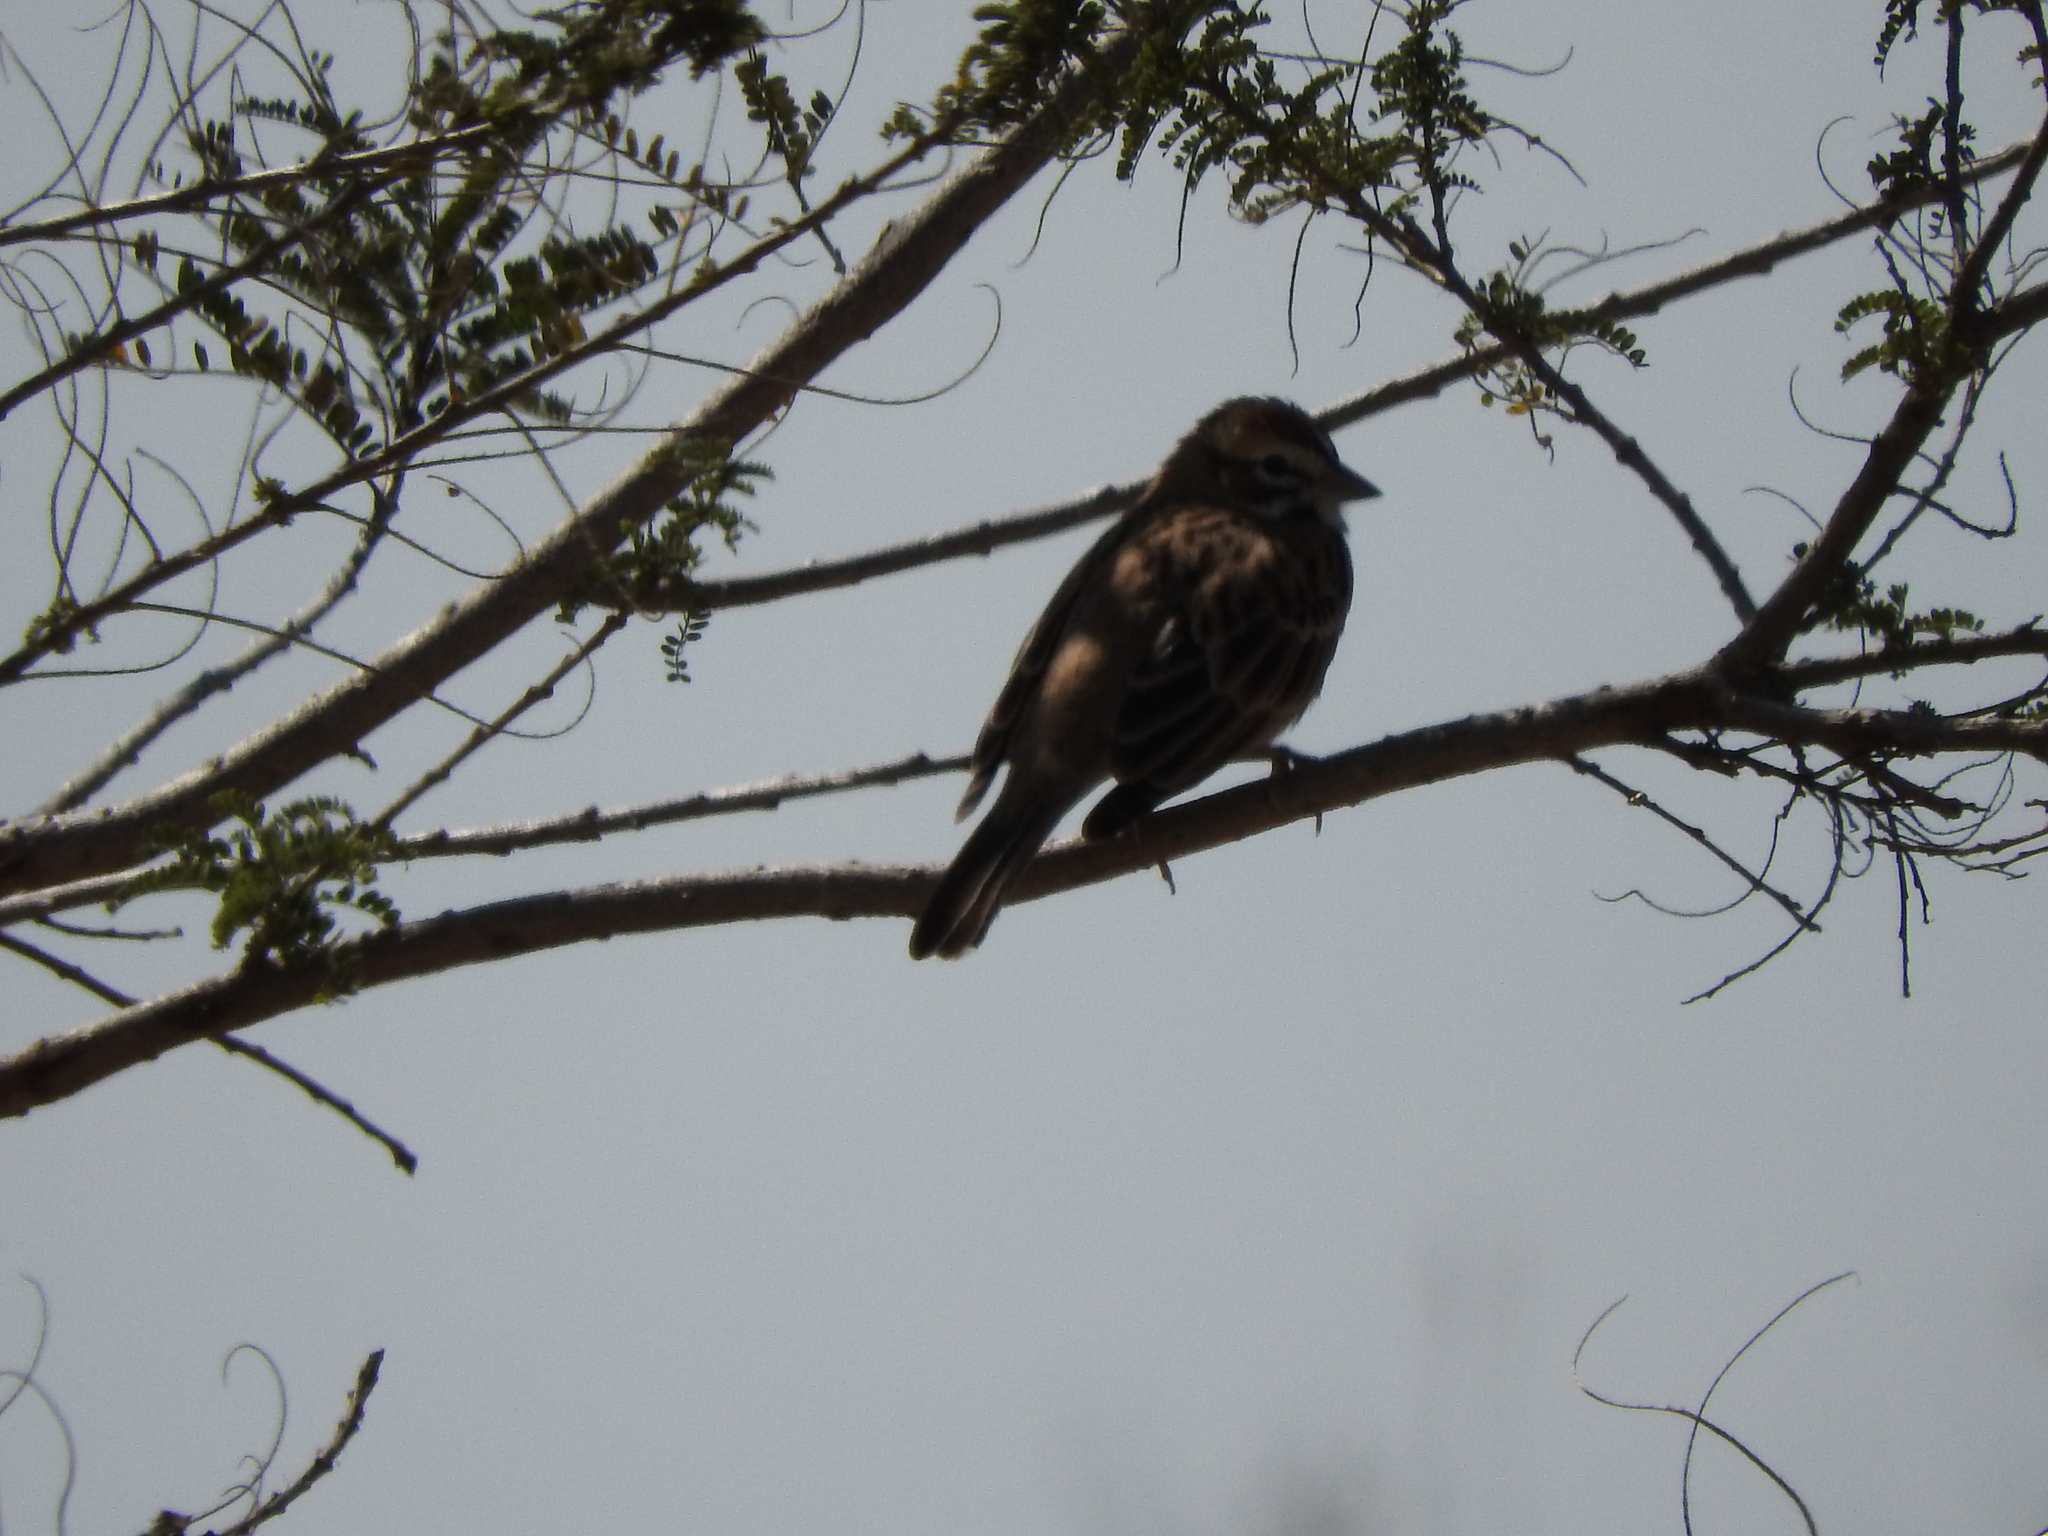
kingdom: Animalia
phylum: Chordata
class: Aves
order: Passeriformes
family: Passerellidae
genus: Chondestes
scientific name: Chondestes grammacus
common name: Lark sparrow
